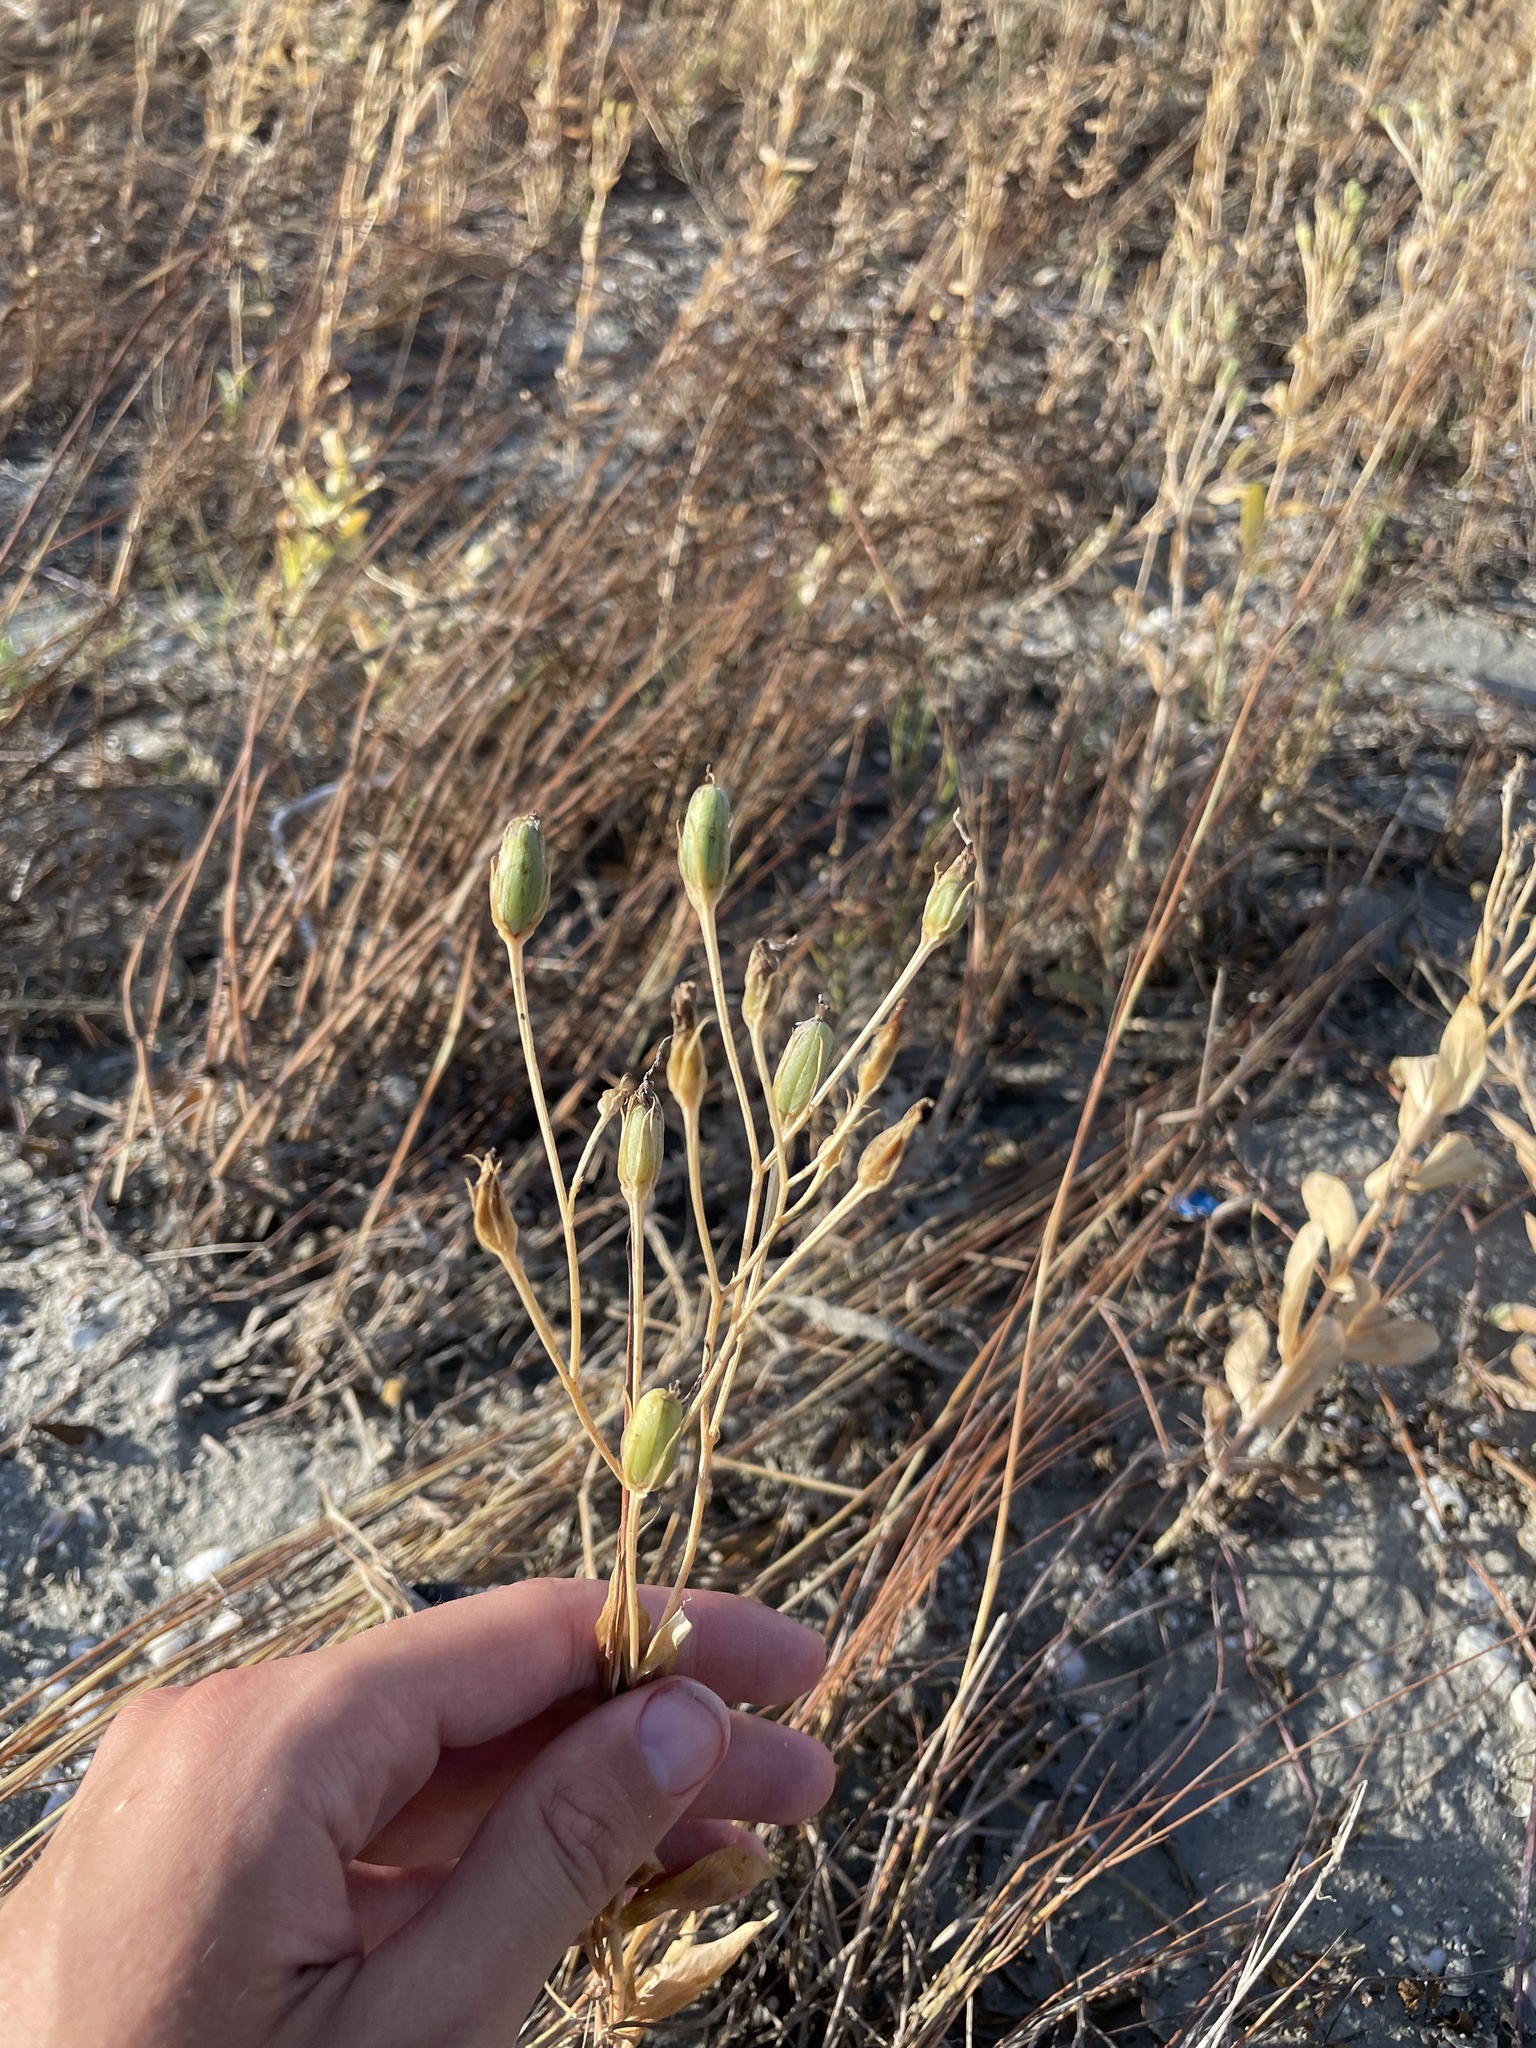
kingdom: Plantae
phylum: Tracheophyta
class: Magnoliopsida
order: Gentianales
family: Gentianaceae
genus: Eustoma
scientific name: Eustoma exaltatum
